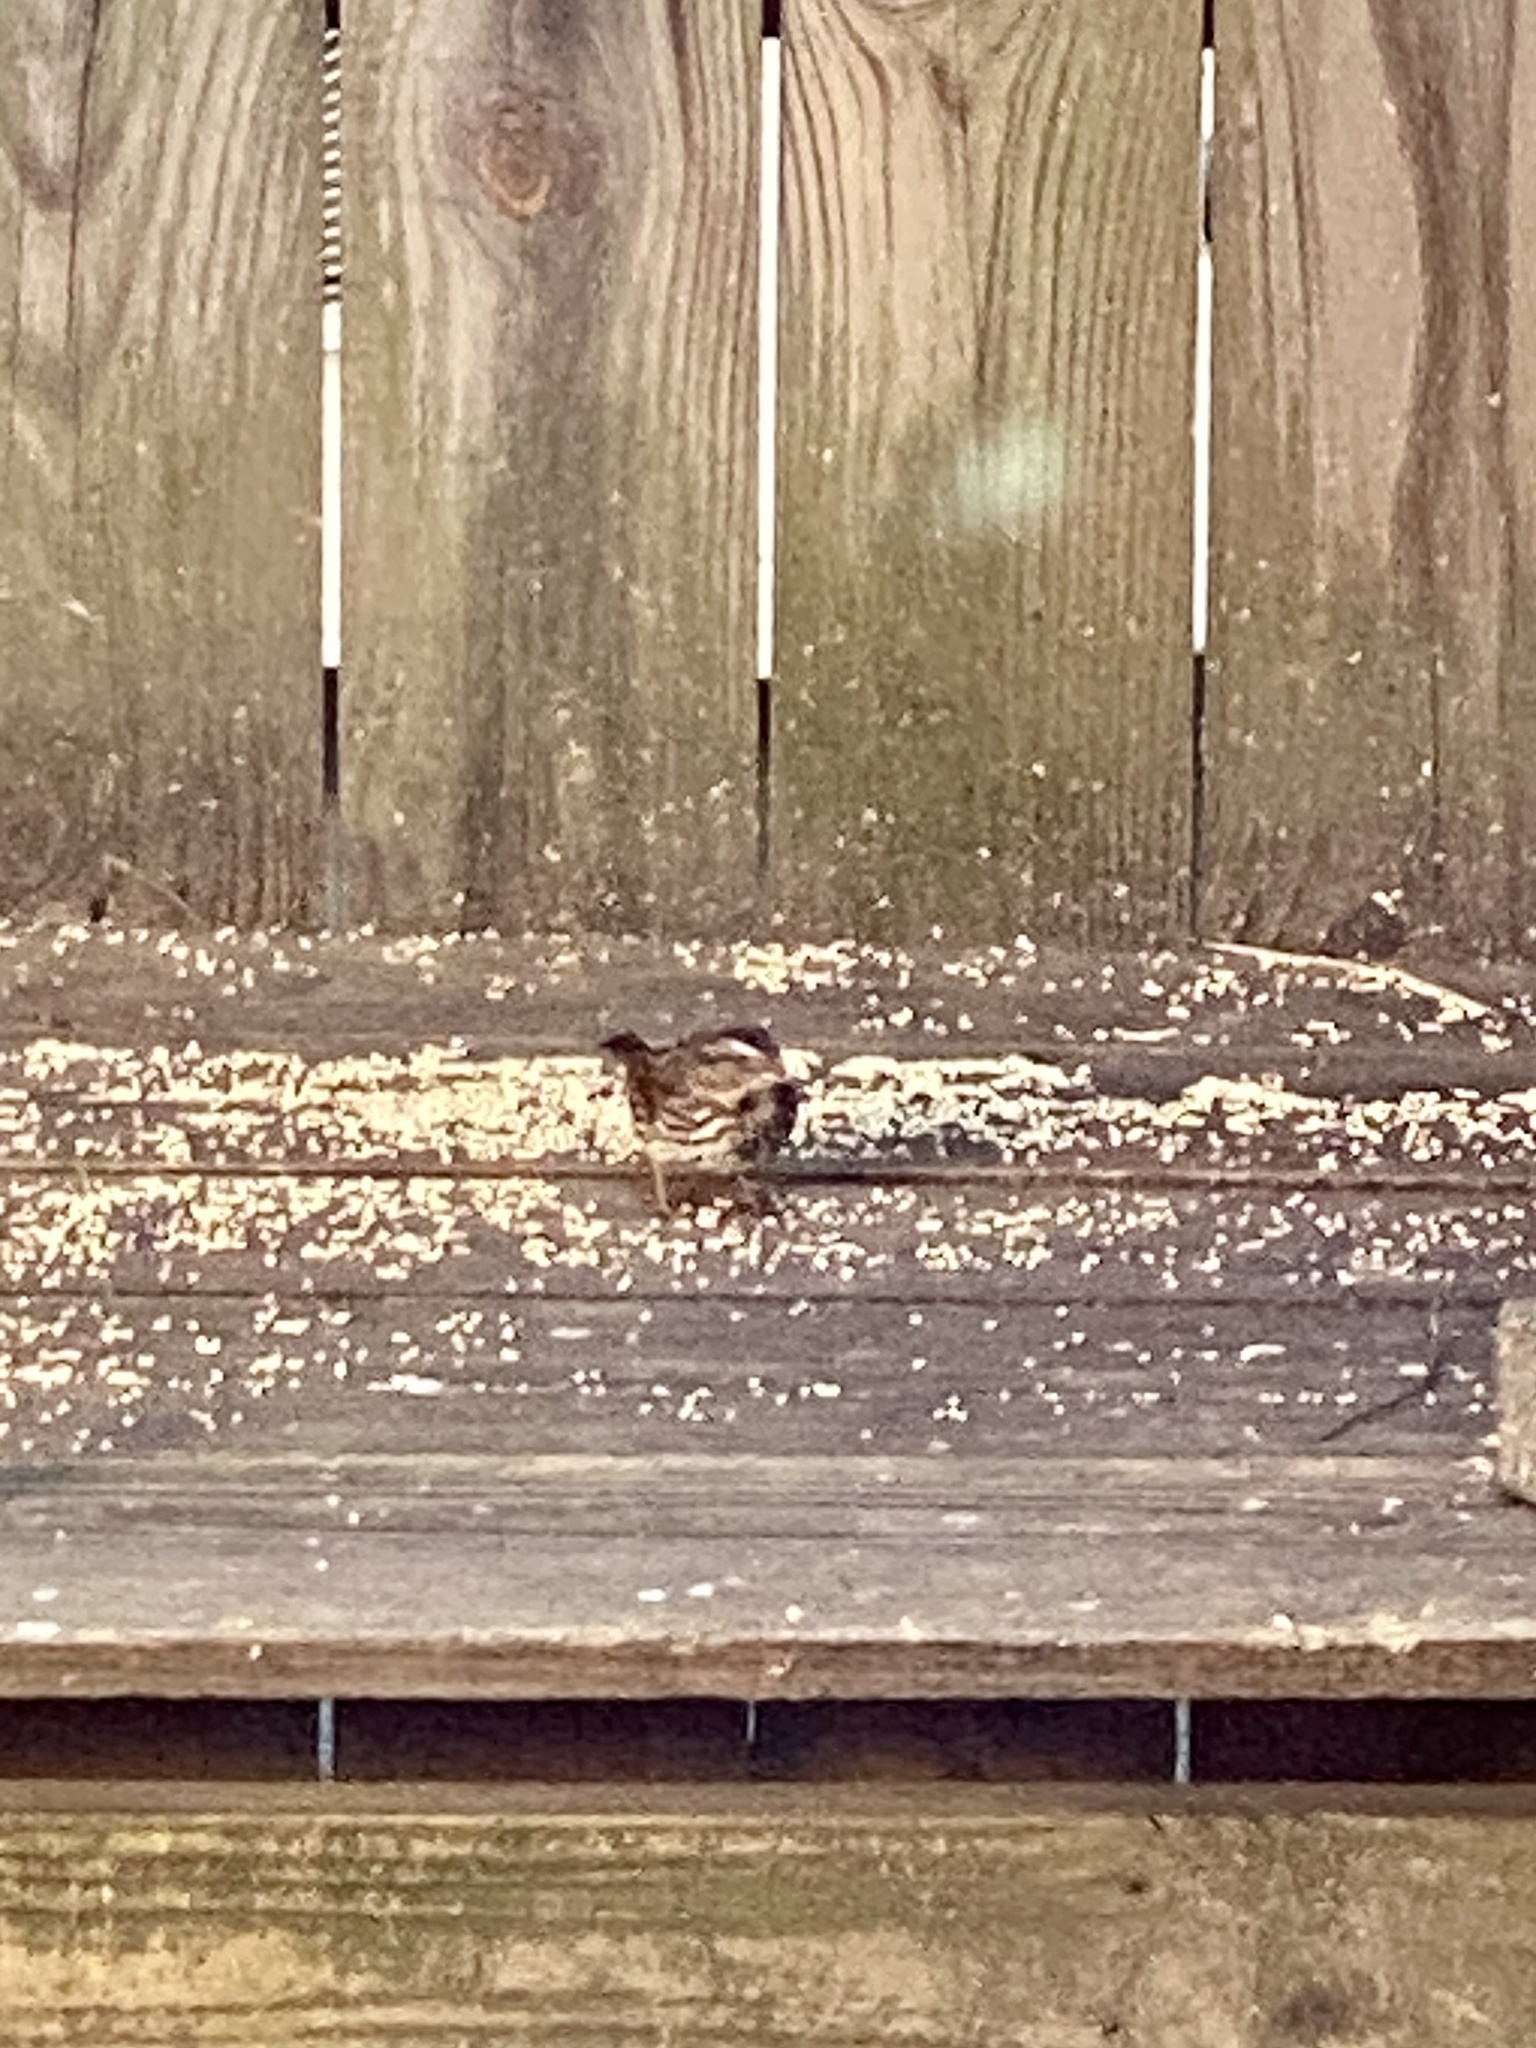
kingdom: Animalia
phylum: Chordata
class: Aves
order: Passeriformes
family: Passerellidae
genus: Melospiza
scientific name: Melospiza melodia
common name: Song sparrow
